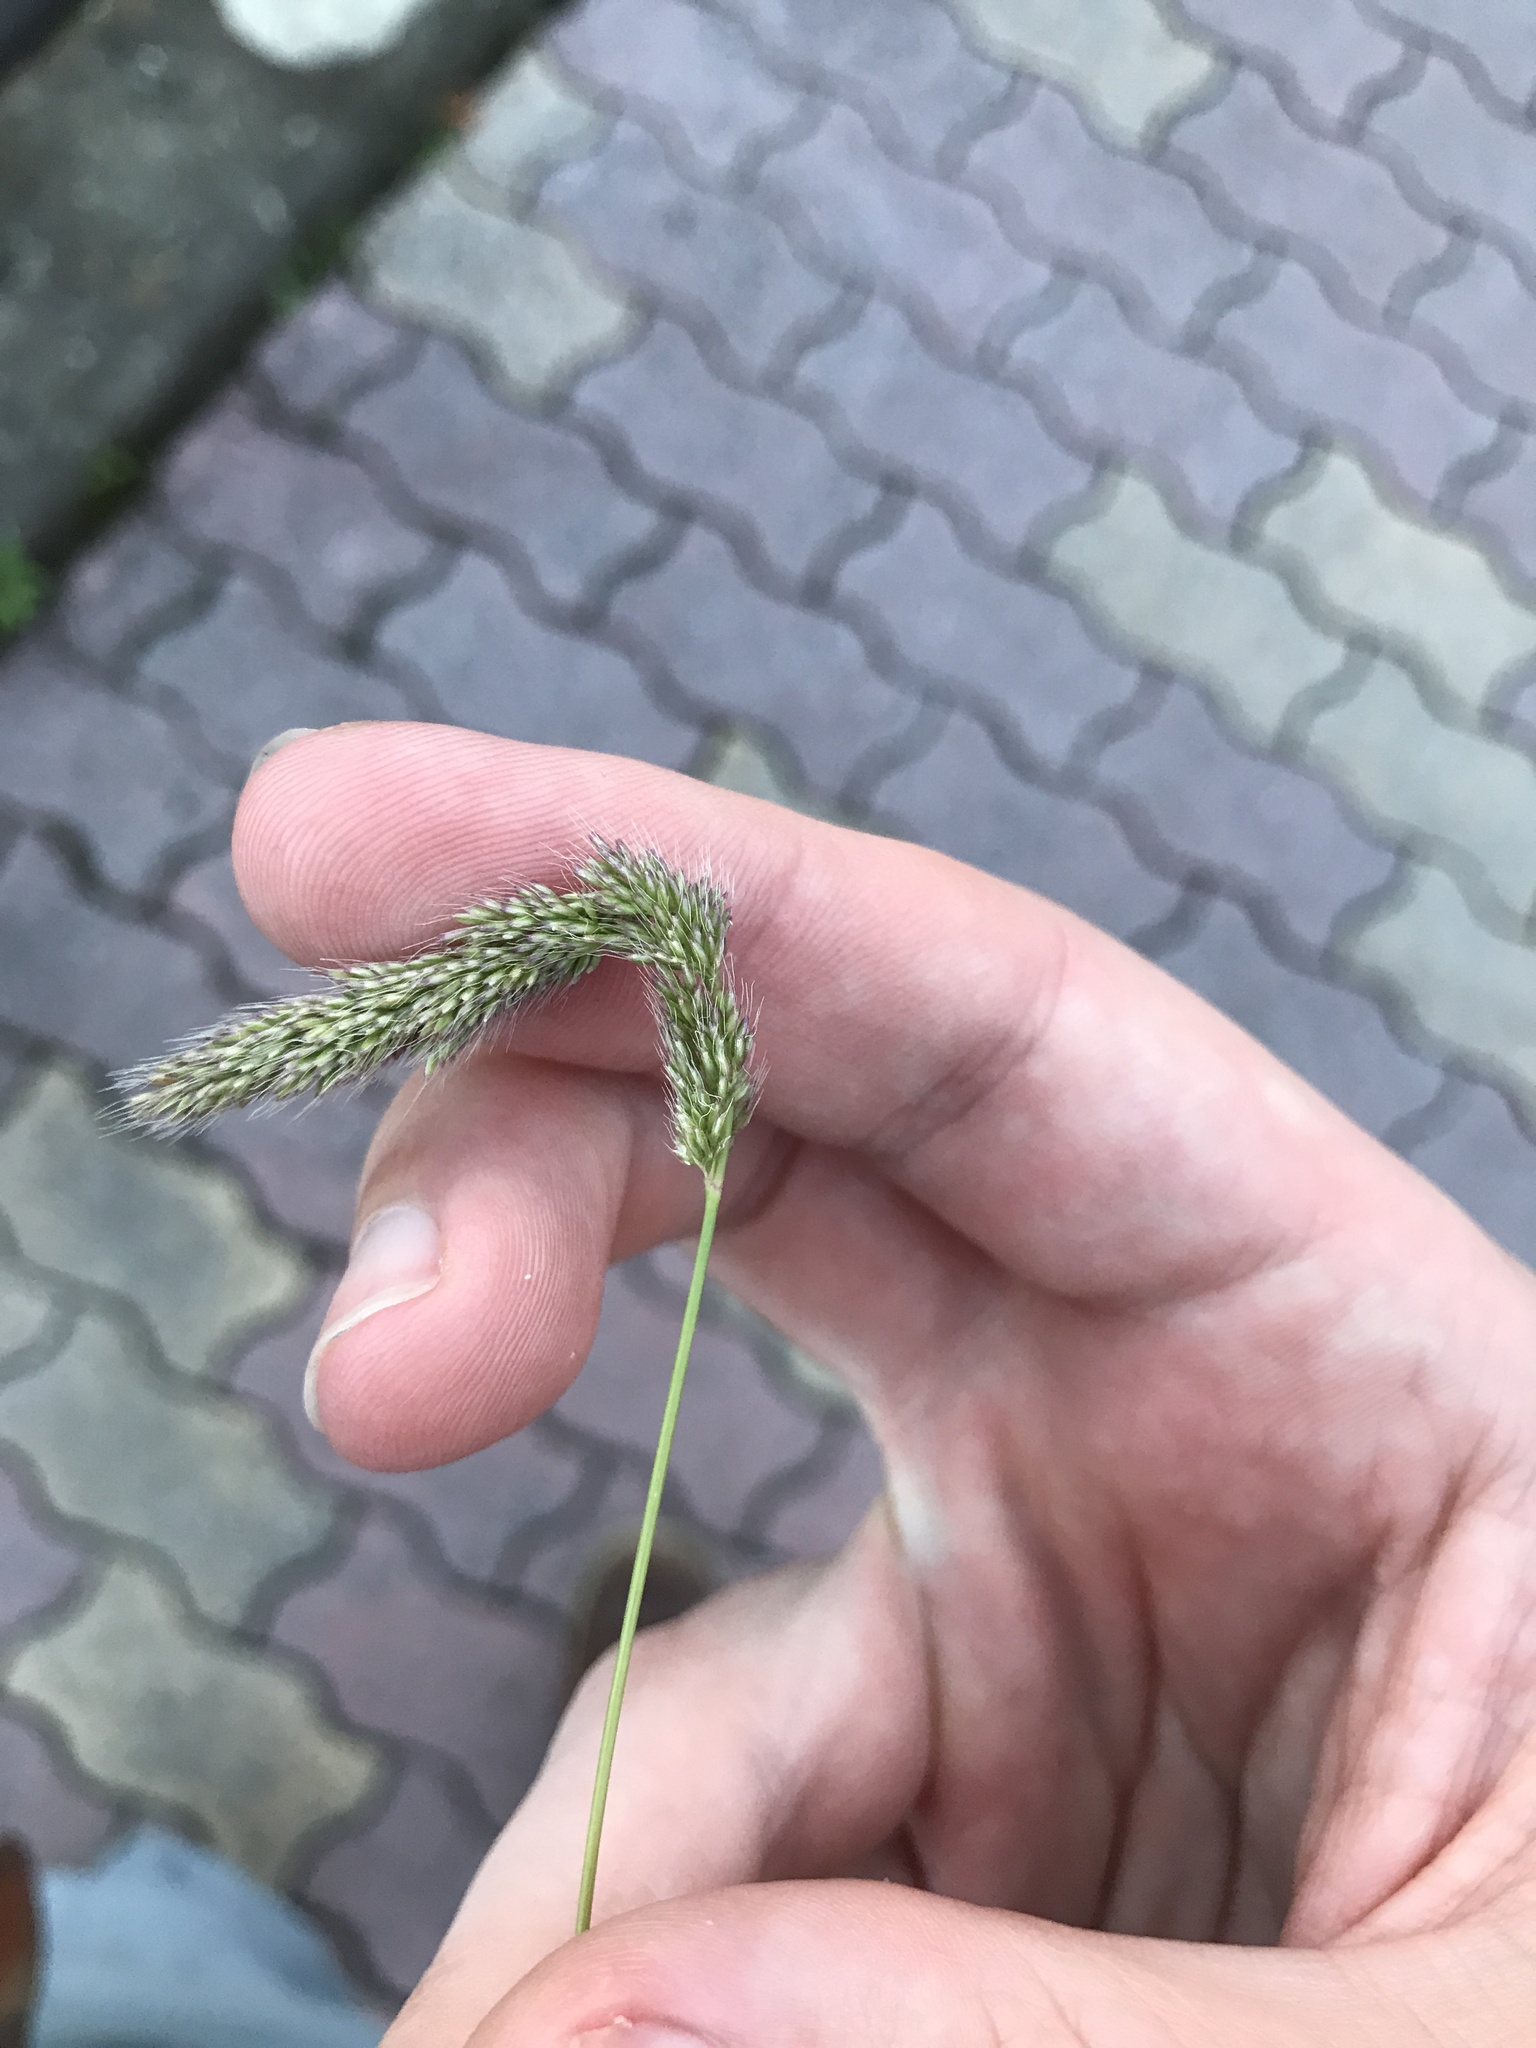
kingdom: Plantae
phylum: Tracheophyta
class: Liliopsida
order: Poales
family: Poaceae
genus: Polypogon
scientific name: Polypogon fugax
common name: Asia minor bluegrass
